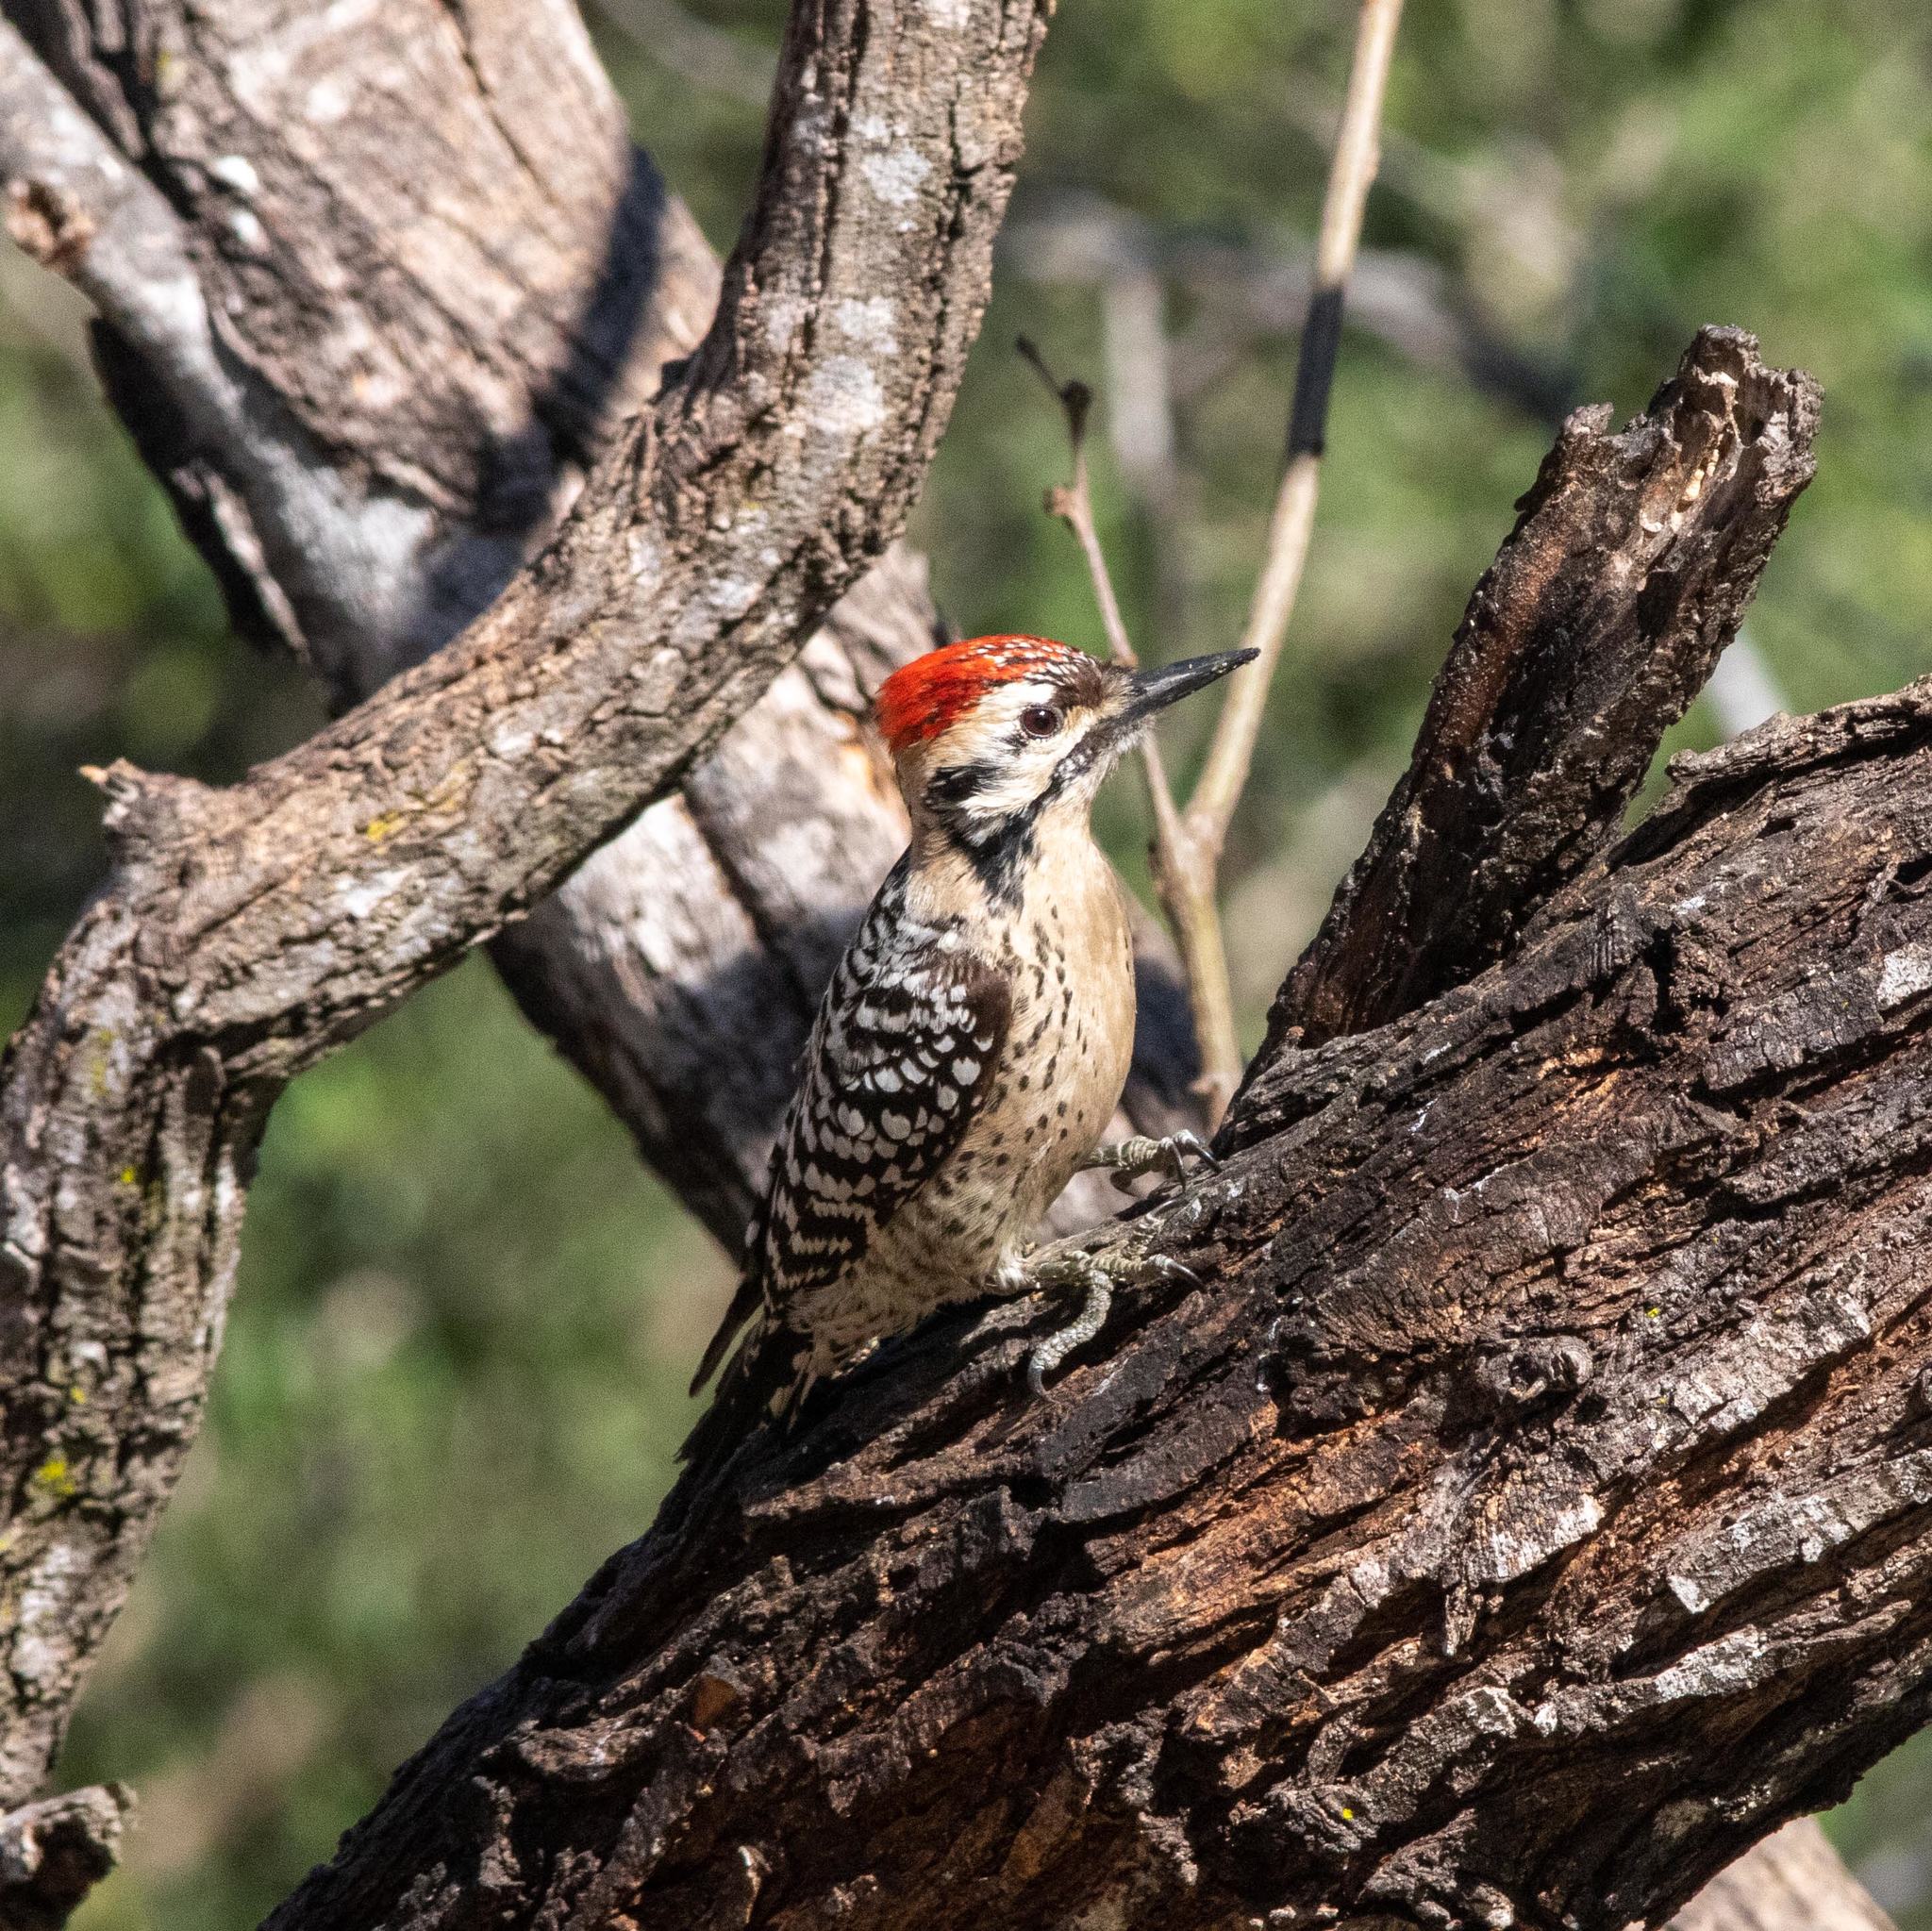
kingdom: Animalia
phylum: Chordata
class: Aves
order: Piciformes
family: Picidae
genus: Dryobates
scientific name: Dryobates scalaris
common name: Ladder-backed woodpecker
